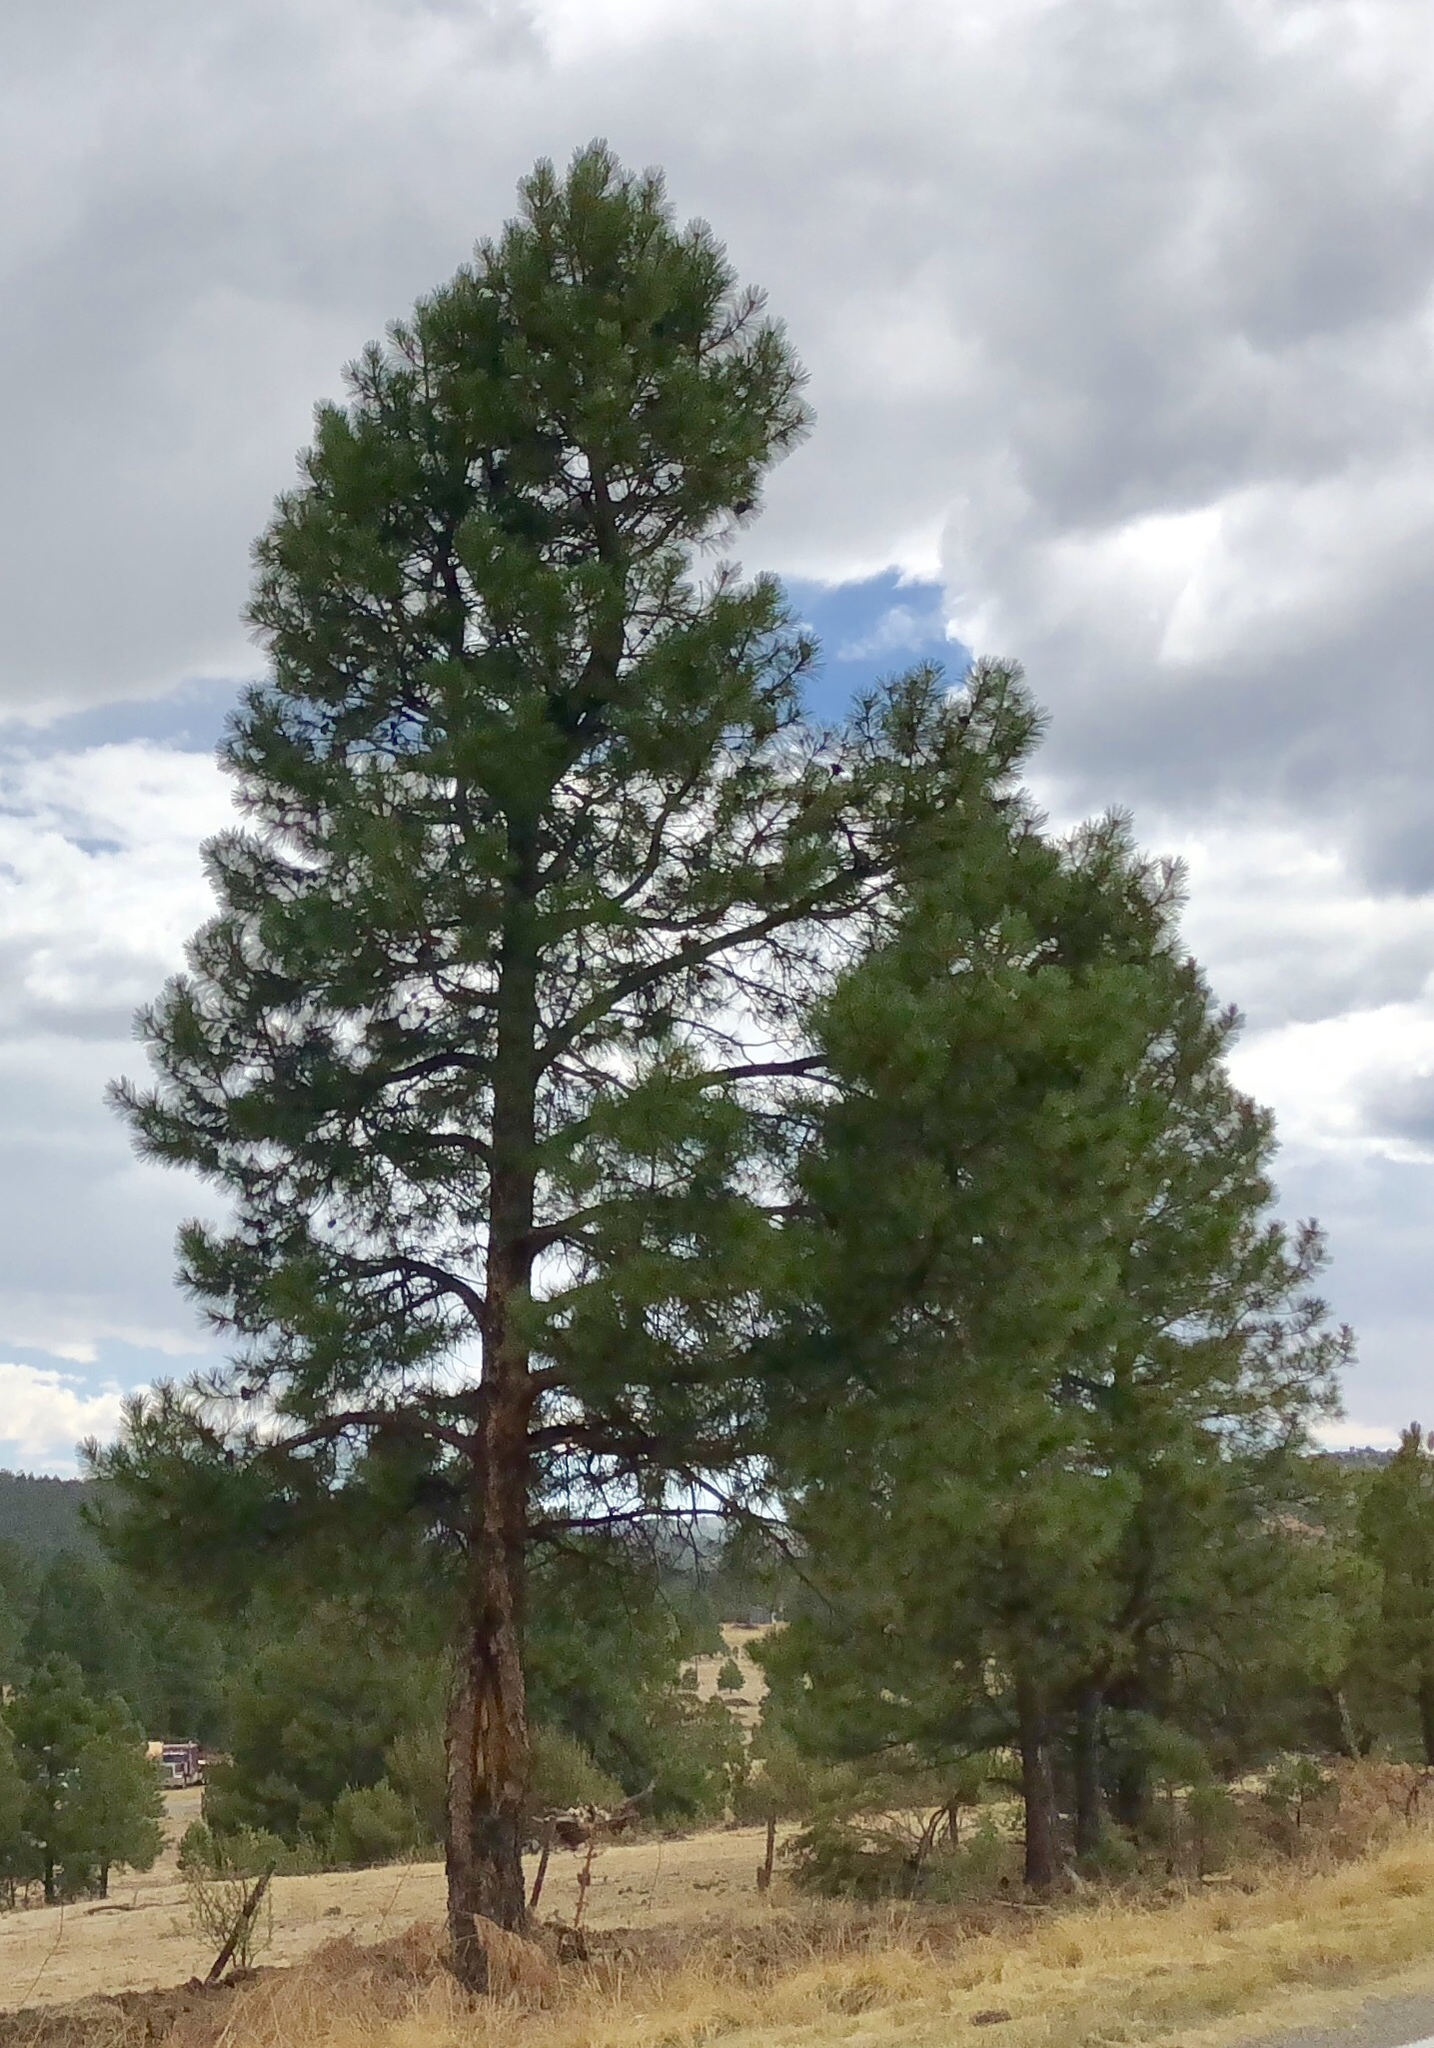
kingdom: Plantae
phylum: Tracheophyta
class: Pinopsida
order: Pinales
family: Pinaceae
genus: Pinus
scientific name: Pinus ponderosa
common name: Western yellow-pine
